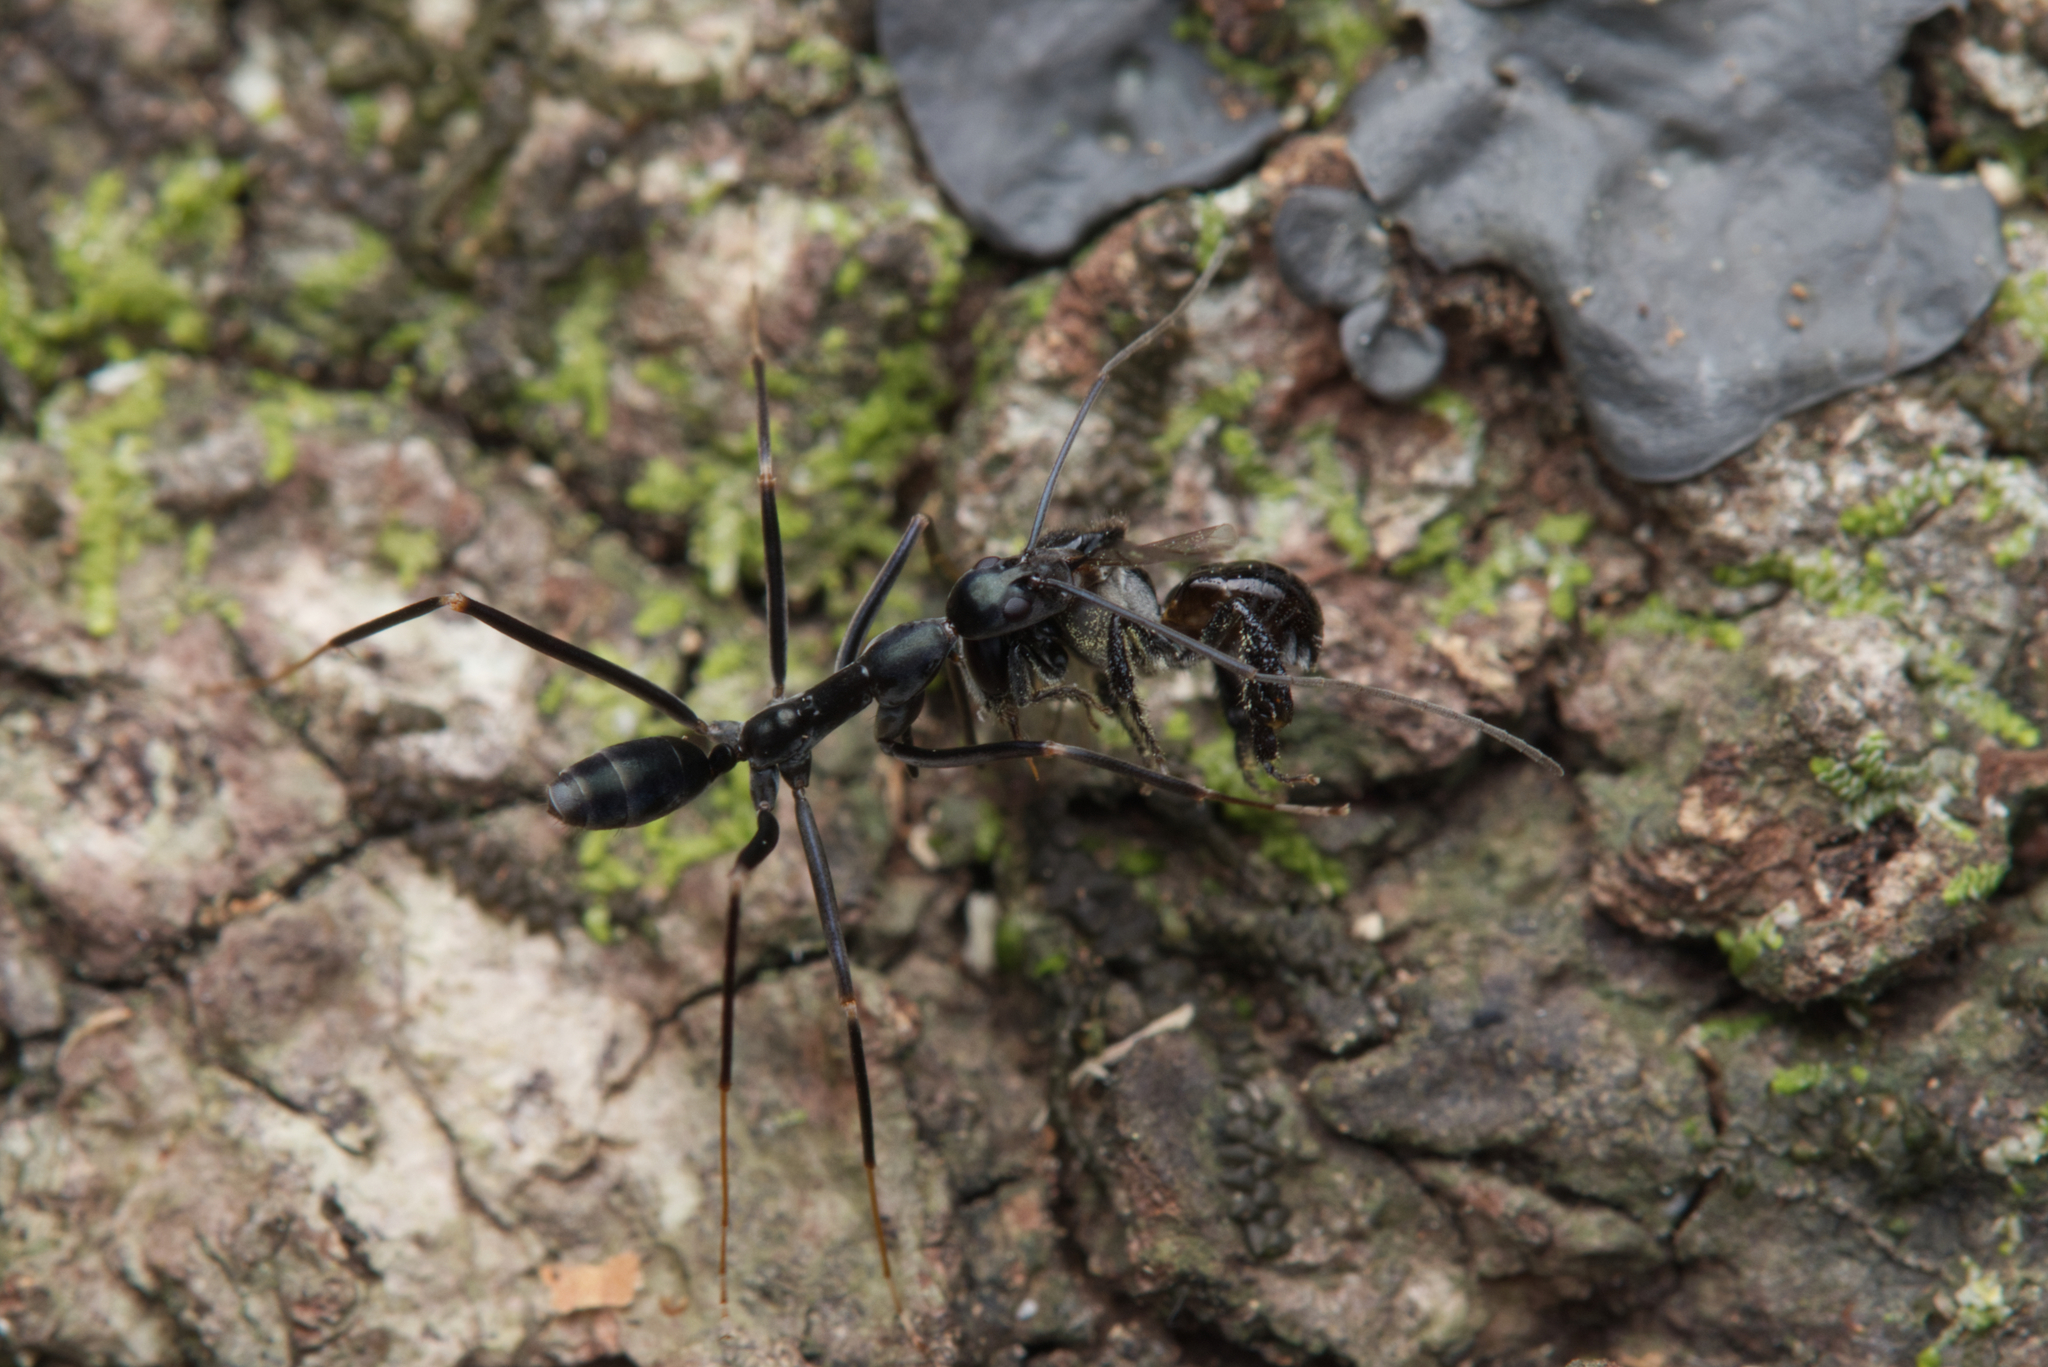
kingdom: Animalia
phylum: Arthropoda
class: Insecta
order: Hymenoptera
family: Formicidae
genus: Leptomyrmex
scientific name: Leptomyrmex mjobergi
